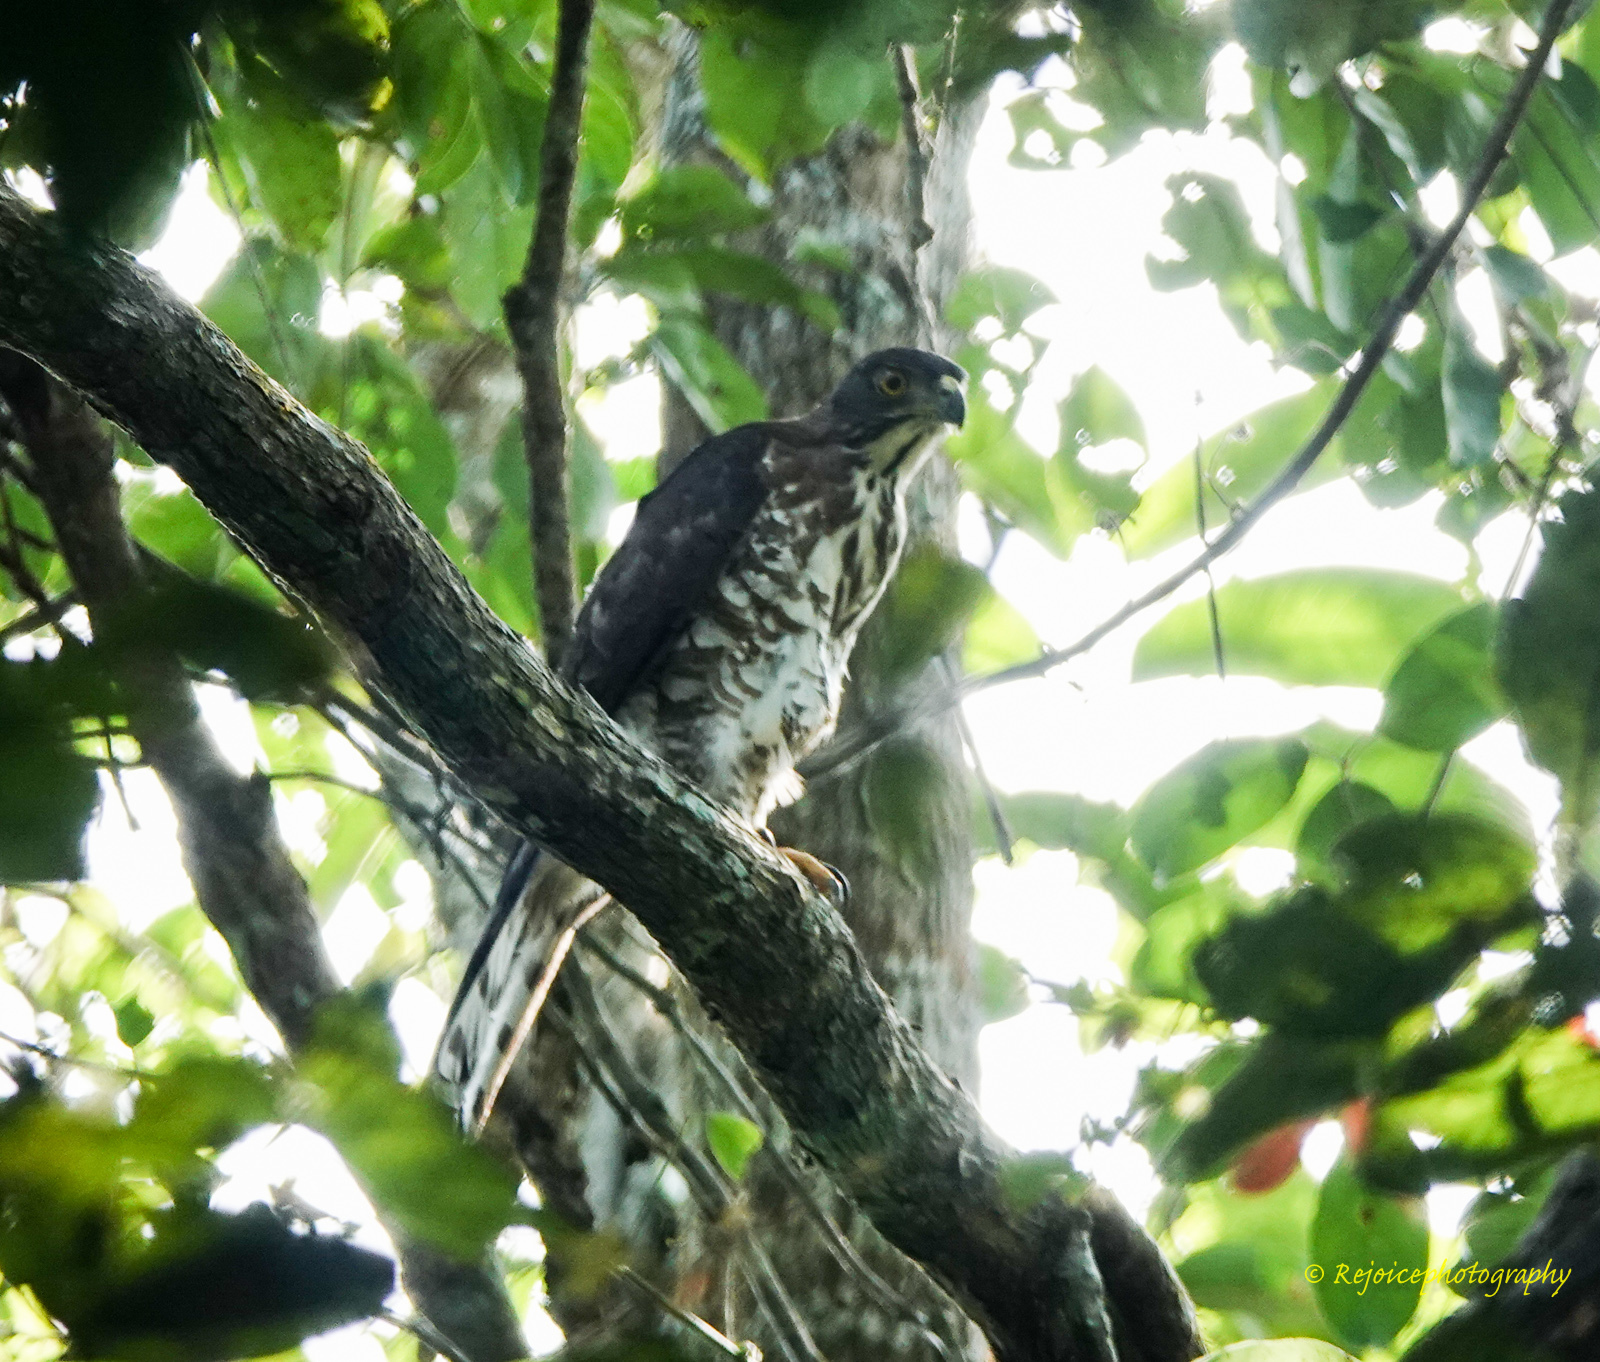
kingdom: Animalia
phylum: Chordata
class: Aves
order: Accipitriformes
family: Accipitridae
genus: Accipiter
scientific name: Accipiter trivirgatus
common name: Crested goshawk
